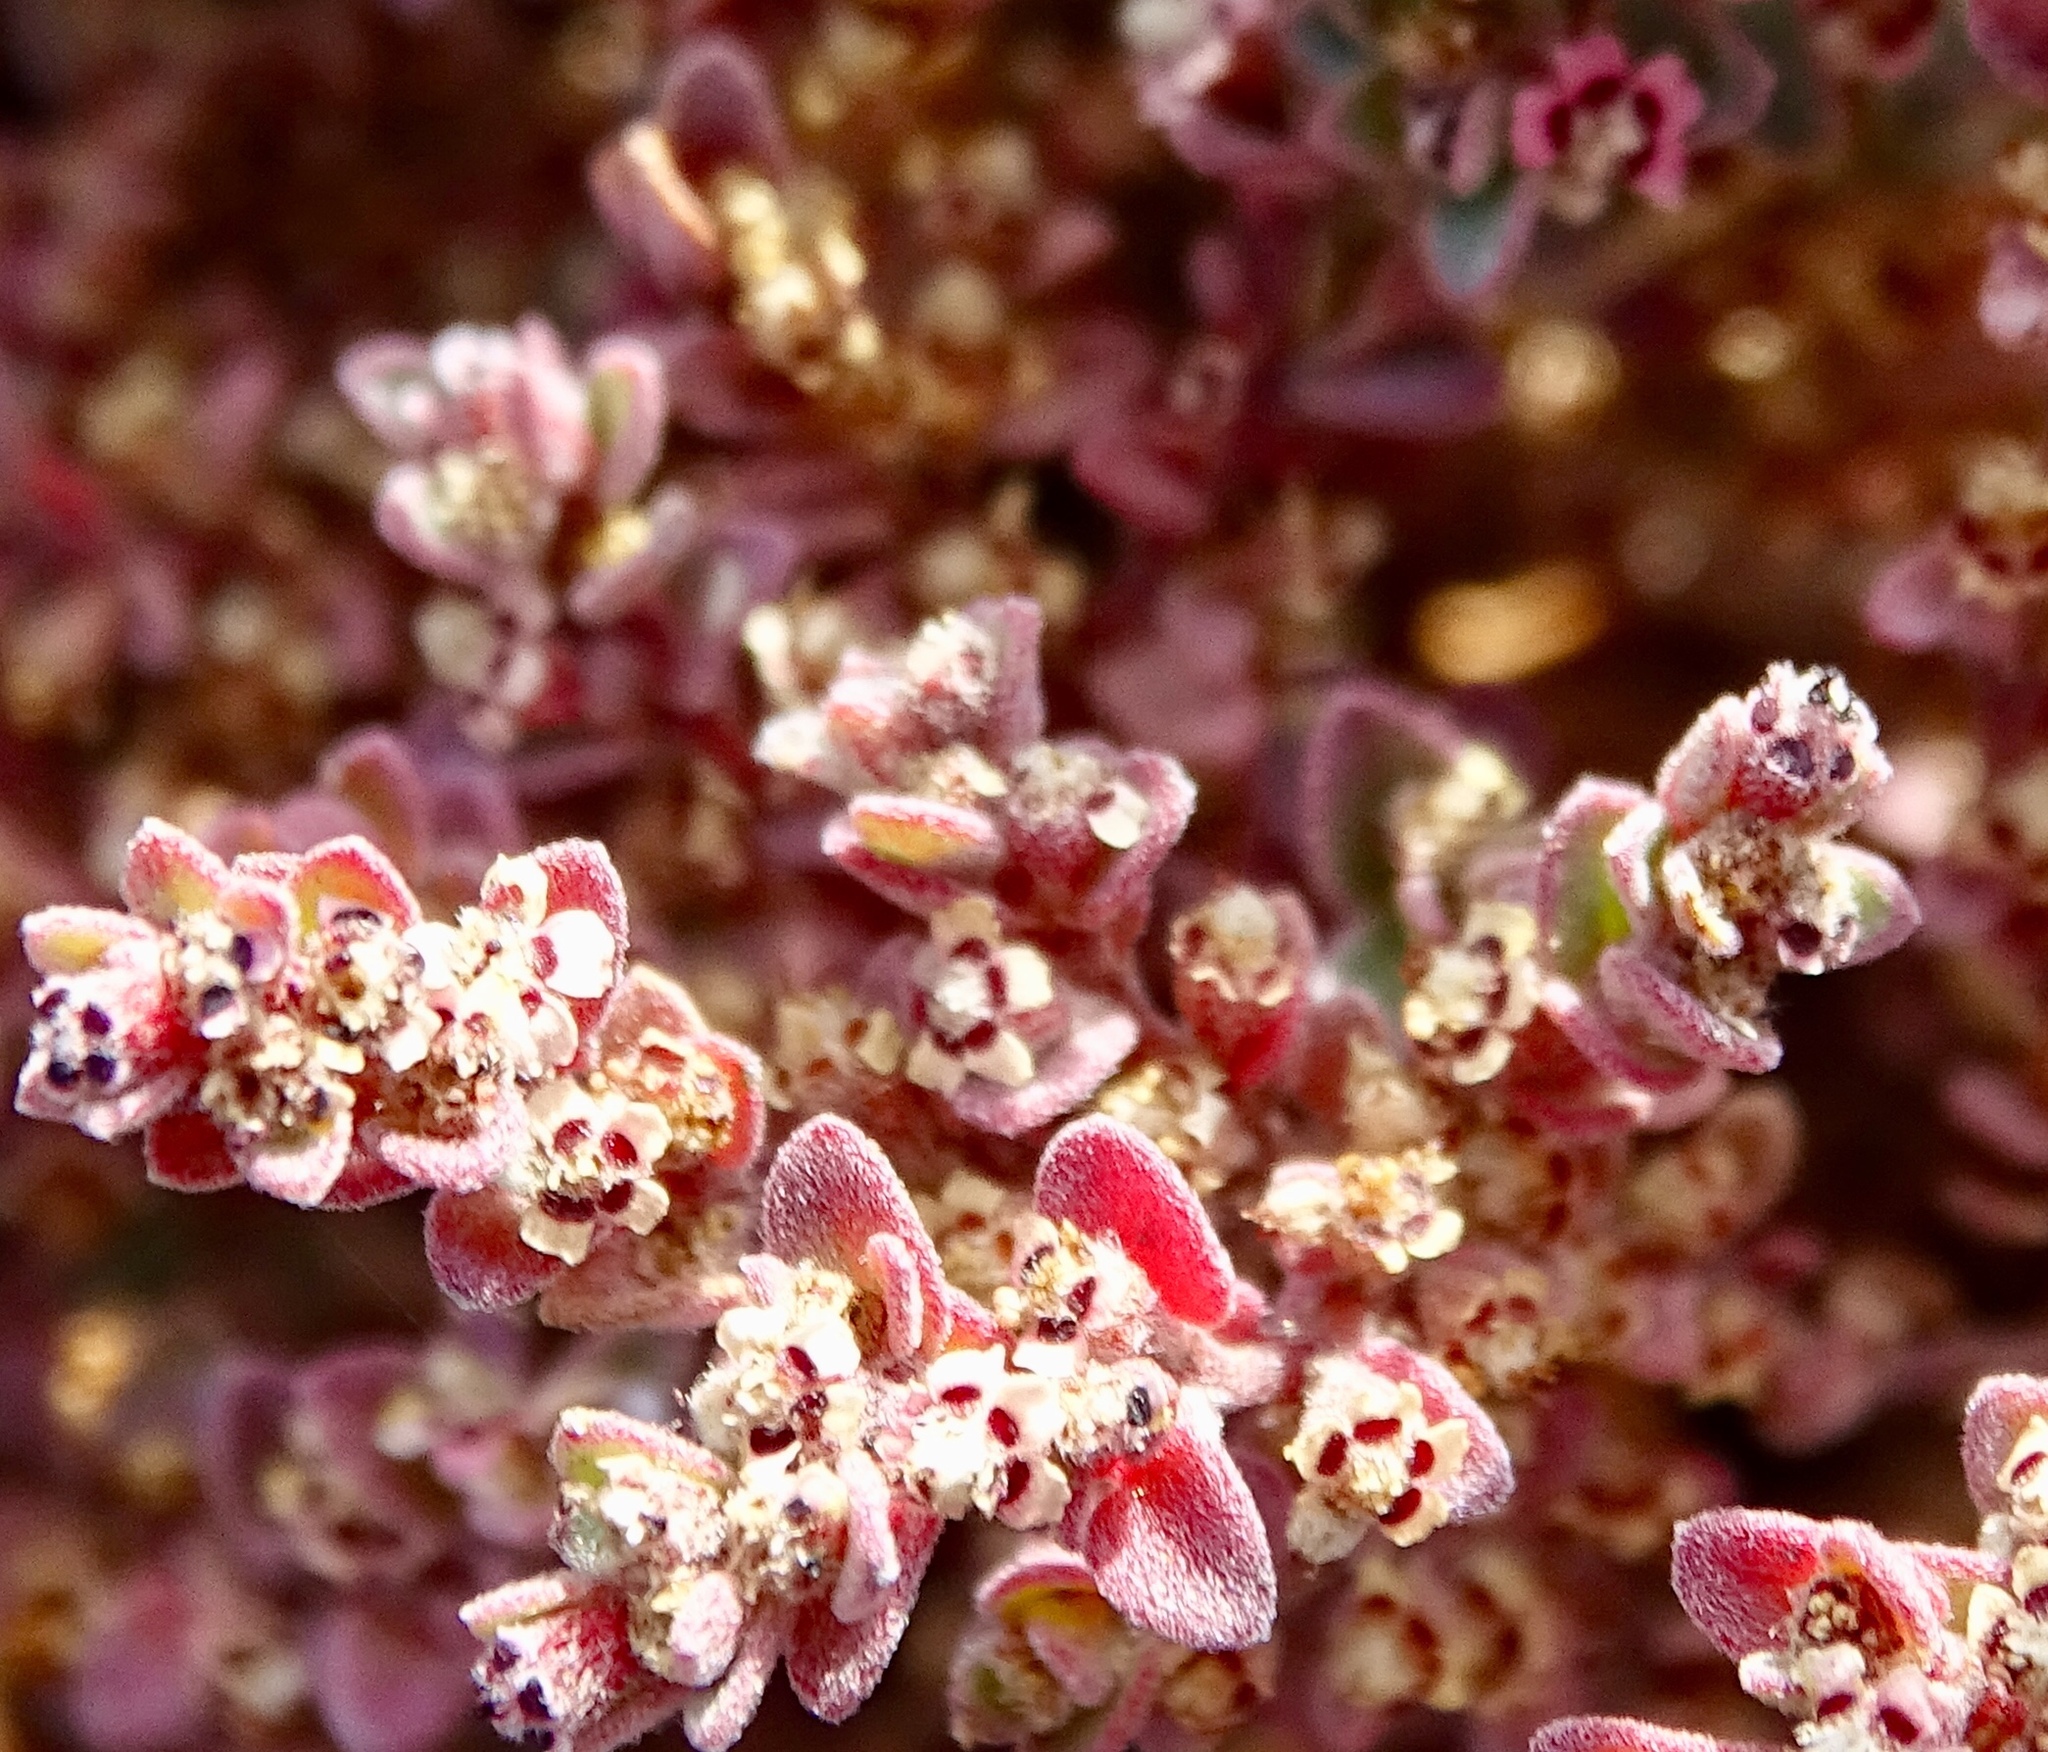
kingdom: Plantae
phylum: Tracheophyta
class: Magnoliopsida
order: Malpighiales
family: Euphorbiaceae
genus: Euphorbia
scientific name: Euphorbia melanadenia
